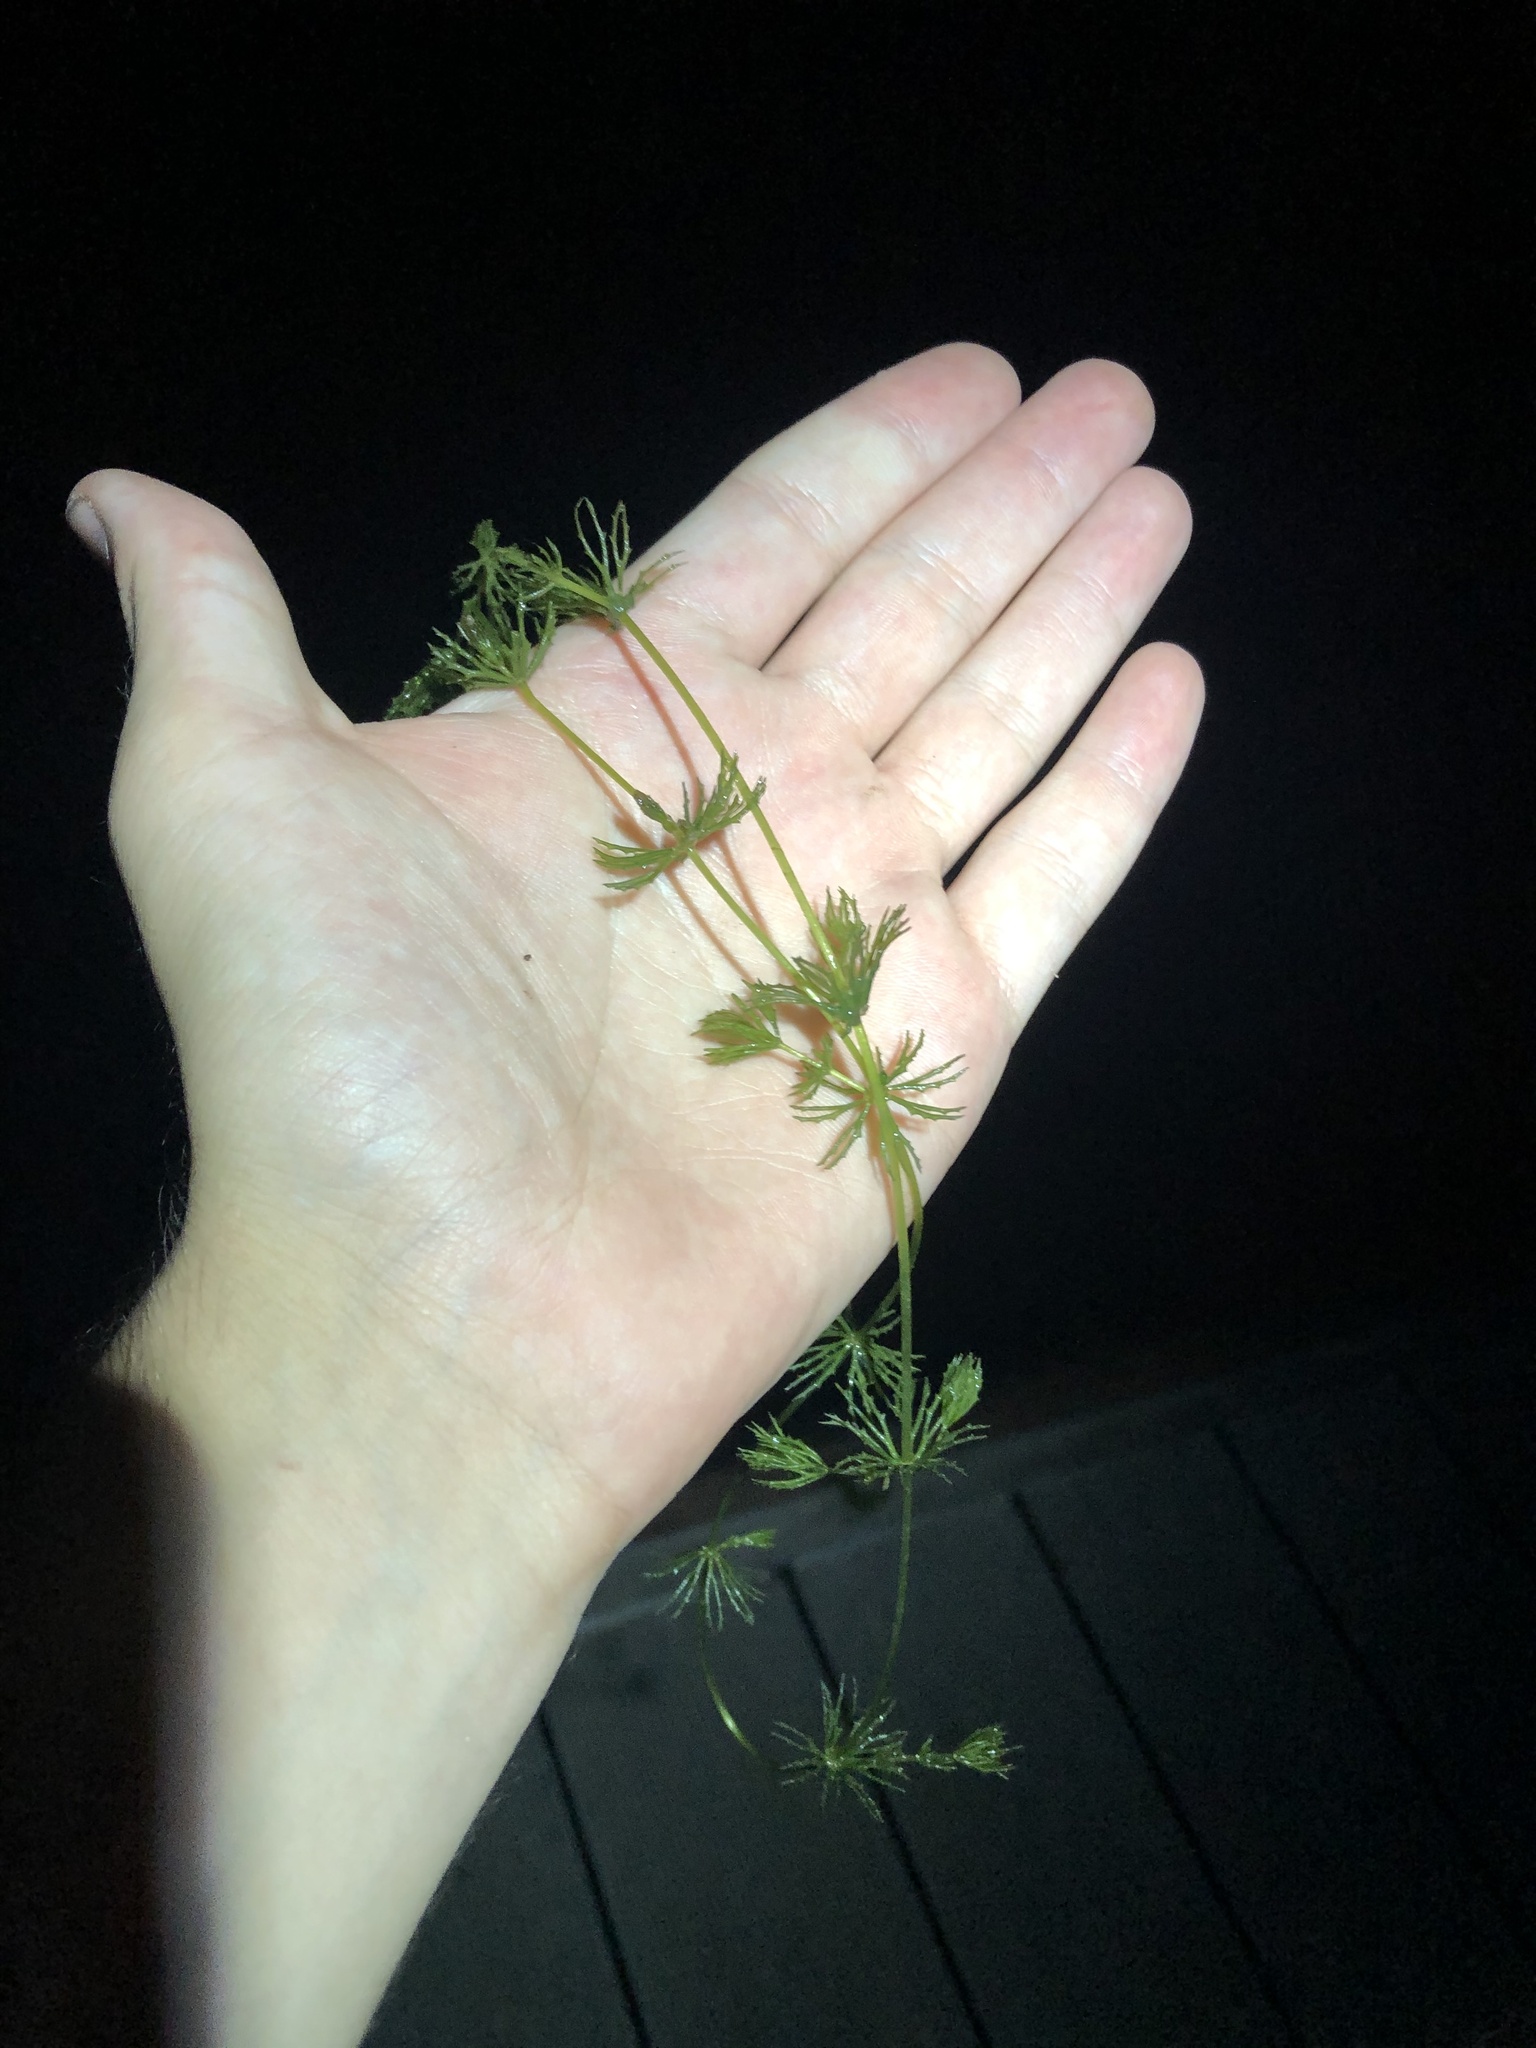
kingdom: Plantae
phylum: Tracheophyta
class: Magnoliopsida
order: Ceratophyllales
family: Ceratophyllaceae
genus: Ceratophyllum
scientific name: Ceratophyllum demersum
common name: Rigid hornwort
